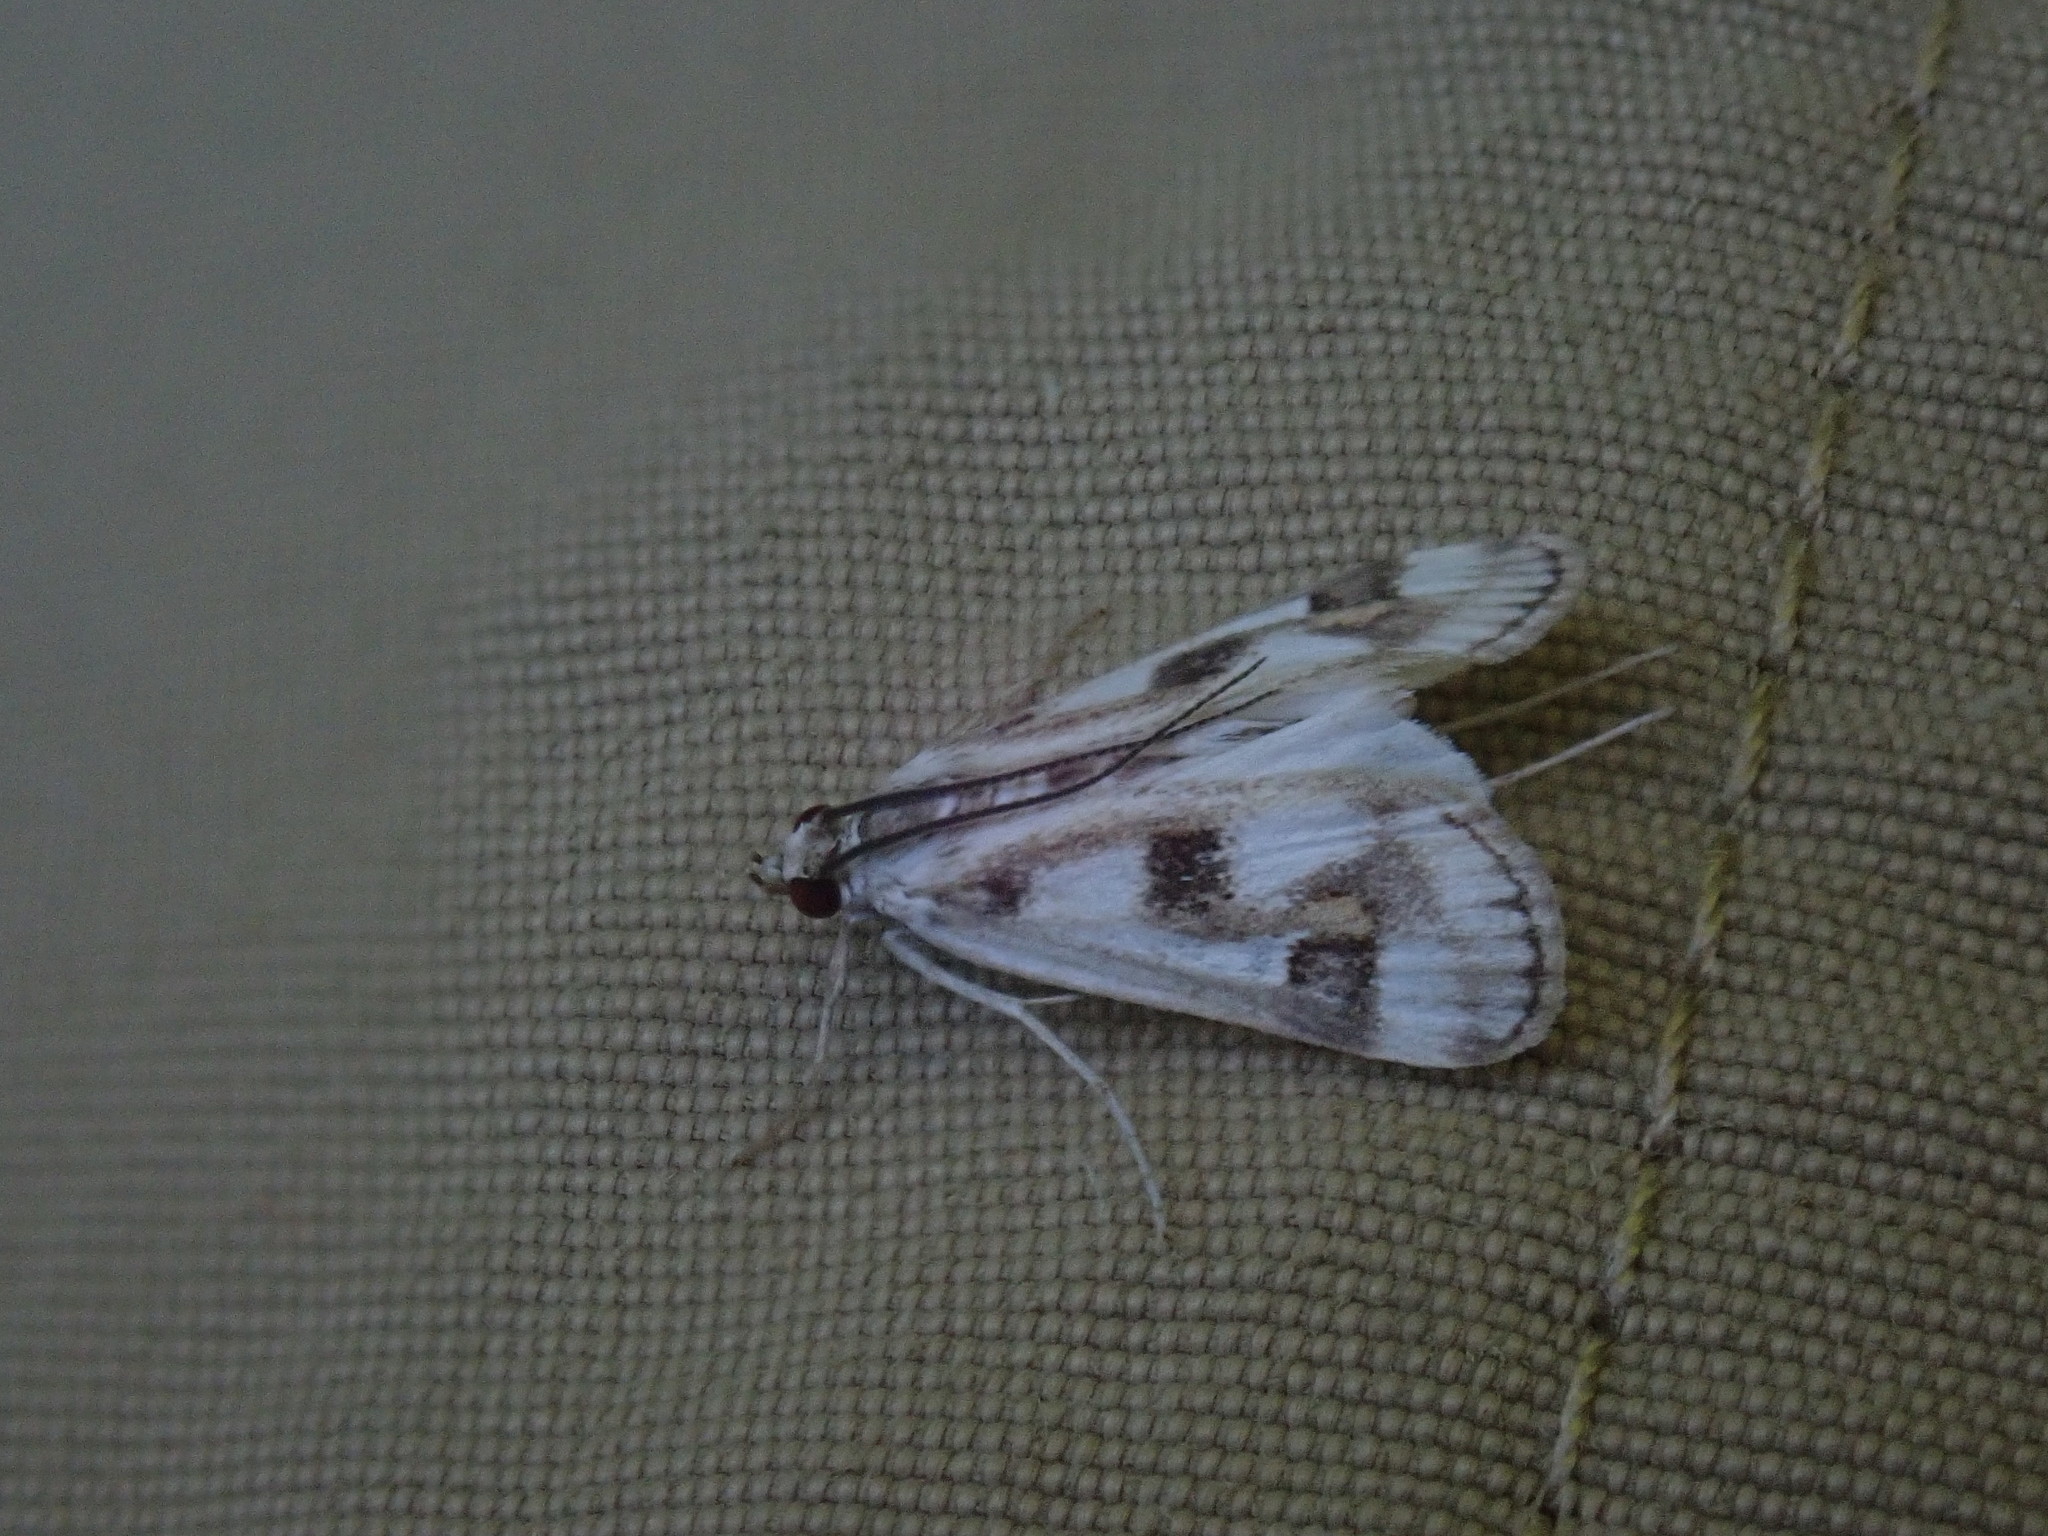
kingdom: Animalia
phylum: Arthropoda
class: Insecta
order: Lepidoptera
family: Crambidae
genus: Parapoynx
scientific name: Parapoynx maculalis
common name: Polymorphic pondweed moth
